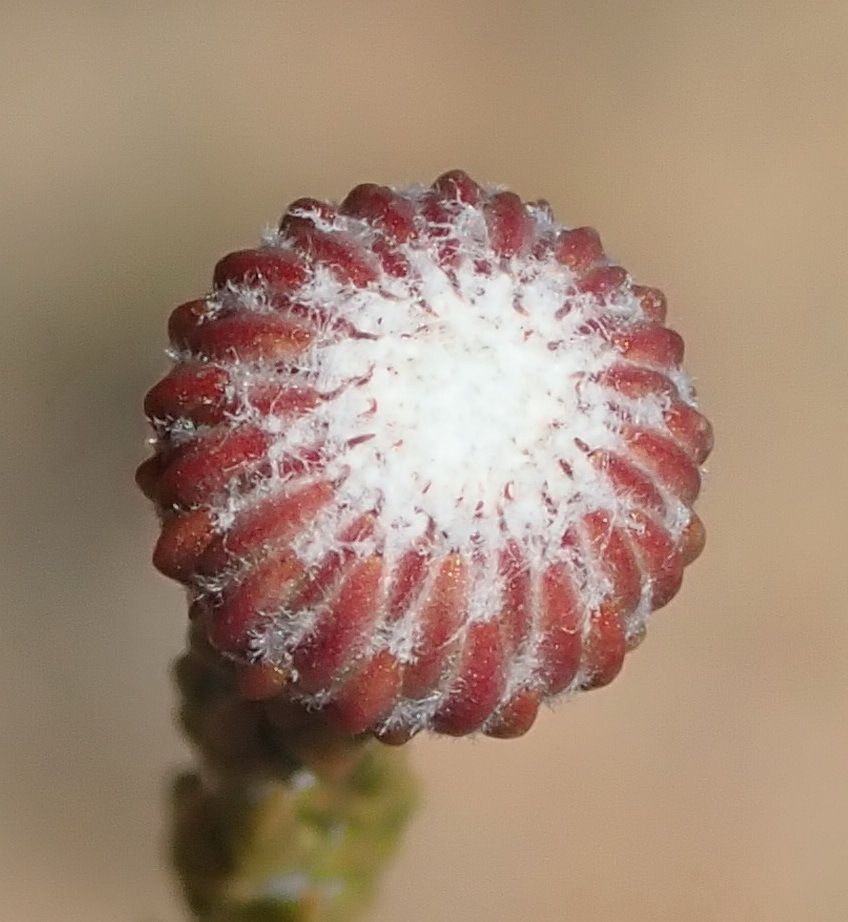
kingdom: Plantae
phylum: Tracheophyta
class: Magnoliopsida
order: Bruniales
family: Bruniaceae
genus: Brunia
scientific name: Brunia noduliflora
